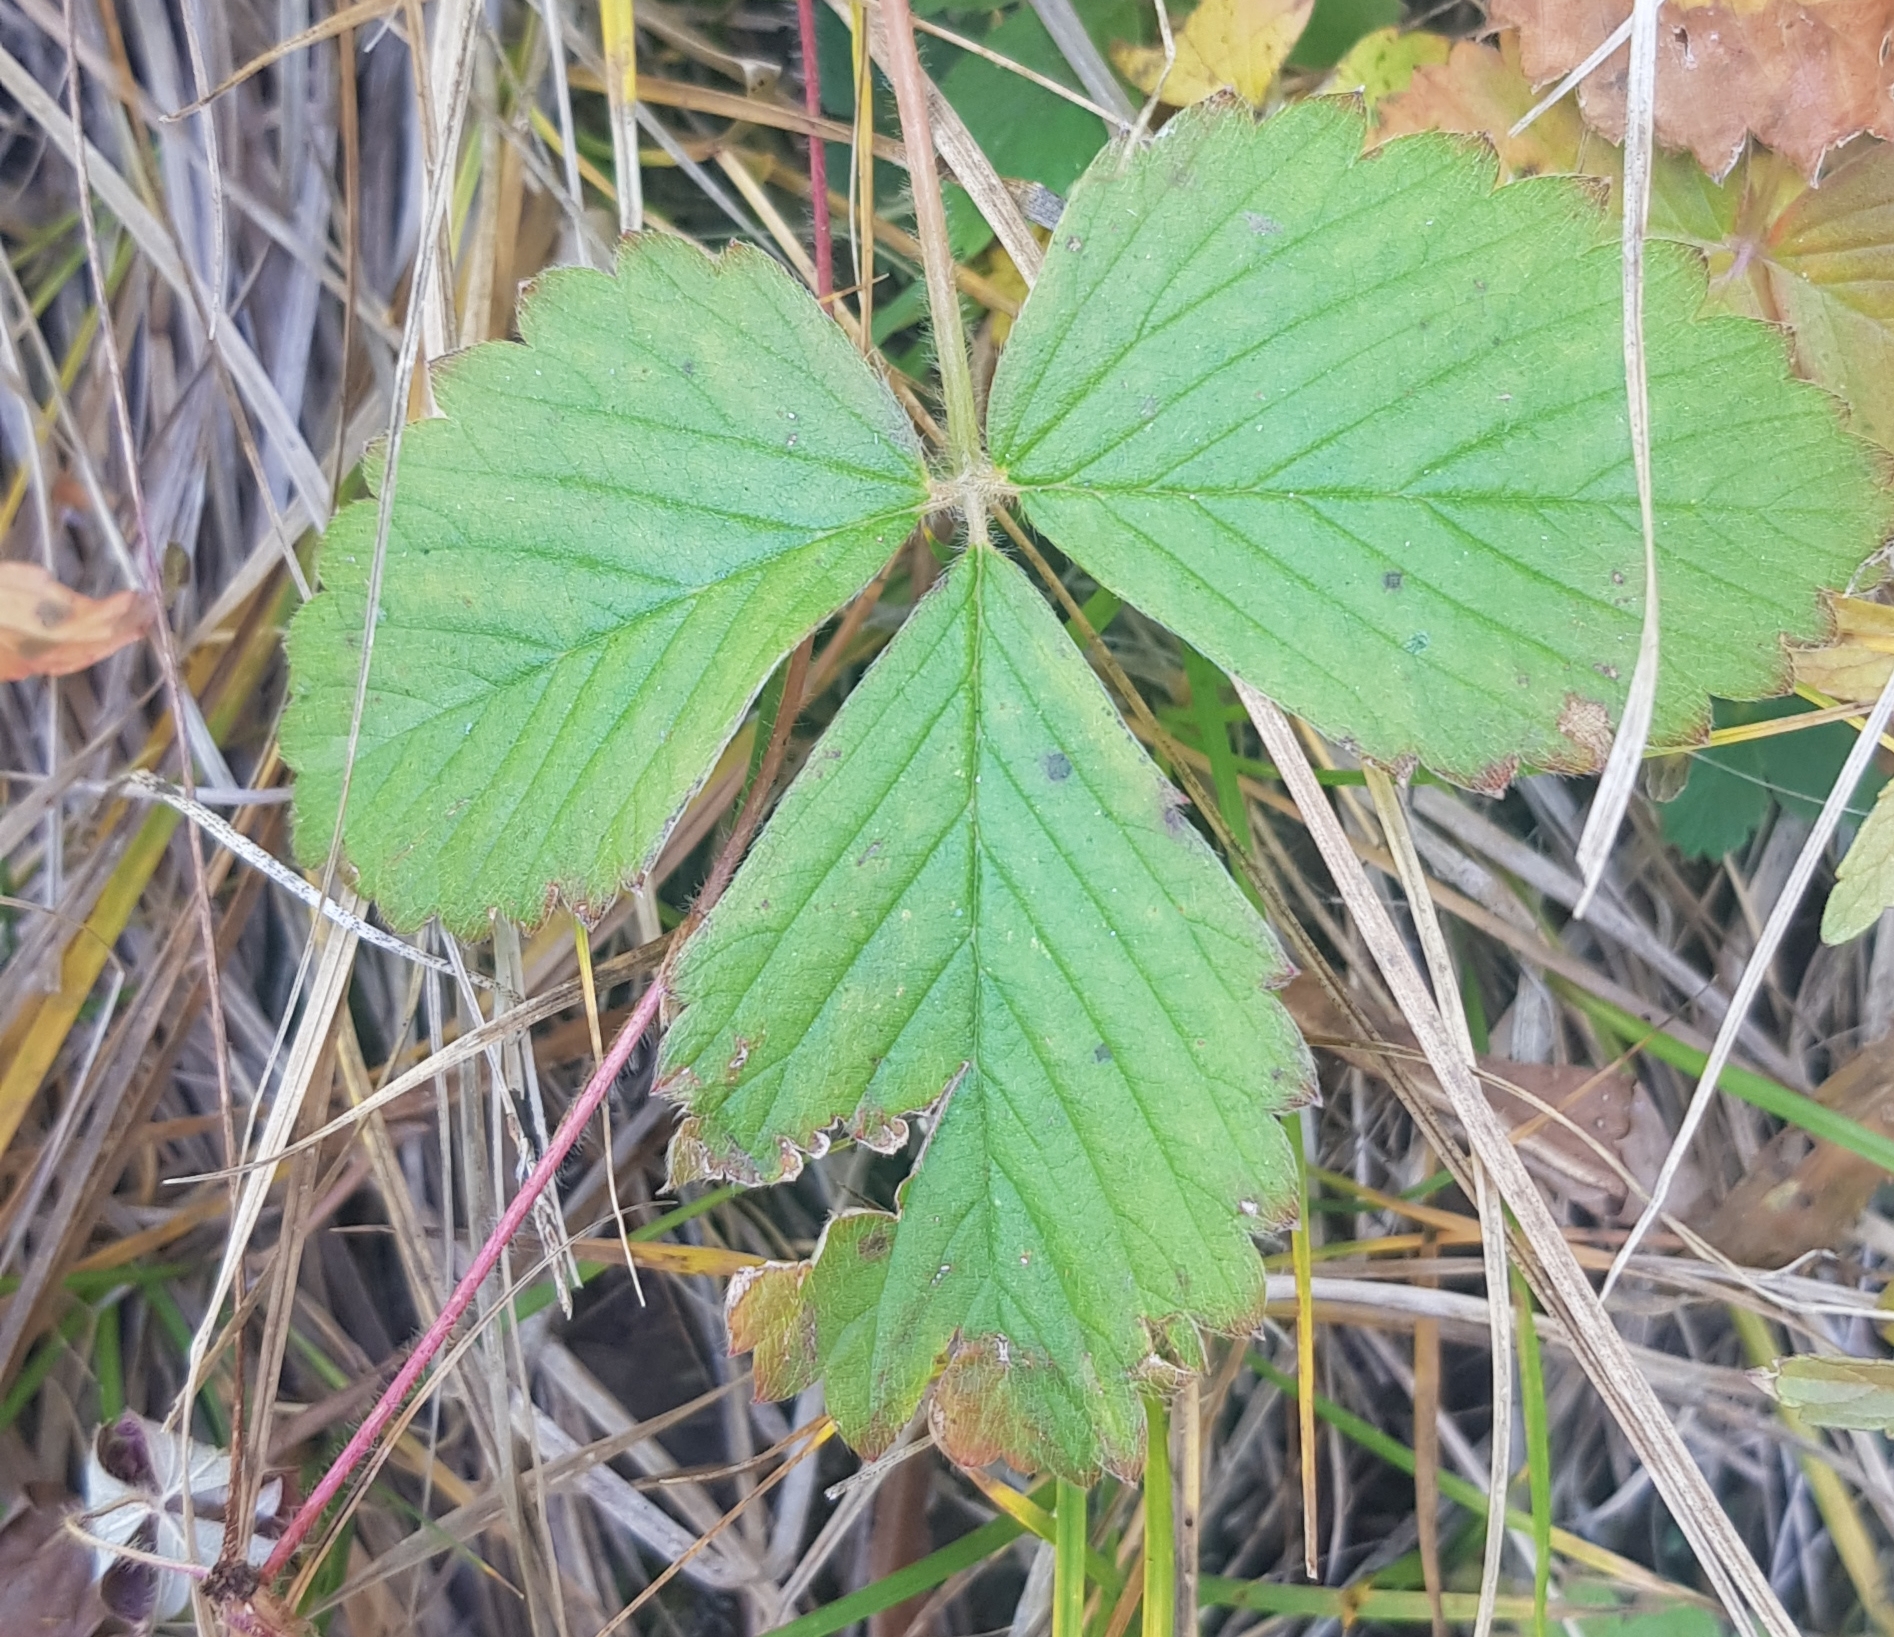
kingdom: Plantae
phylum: Tracheophyta
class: Magnoliopsida
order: Rosales
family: Rosaceae
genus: Fragaria
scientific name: Fragaria orientalis
